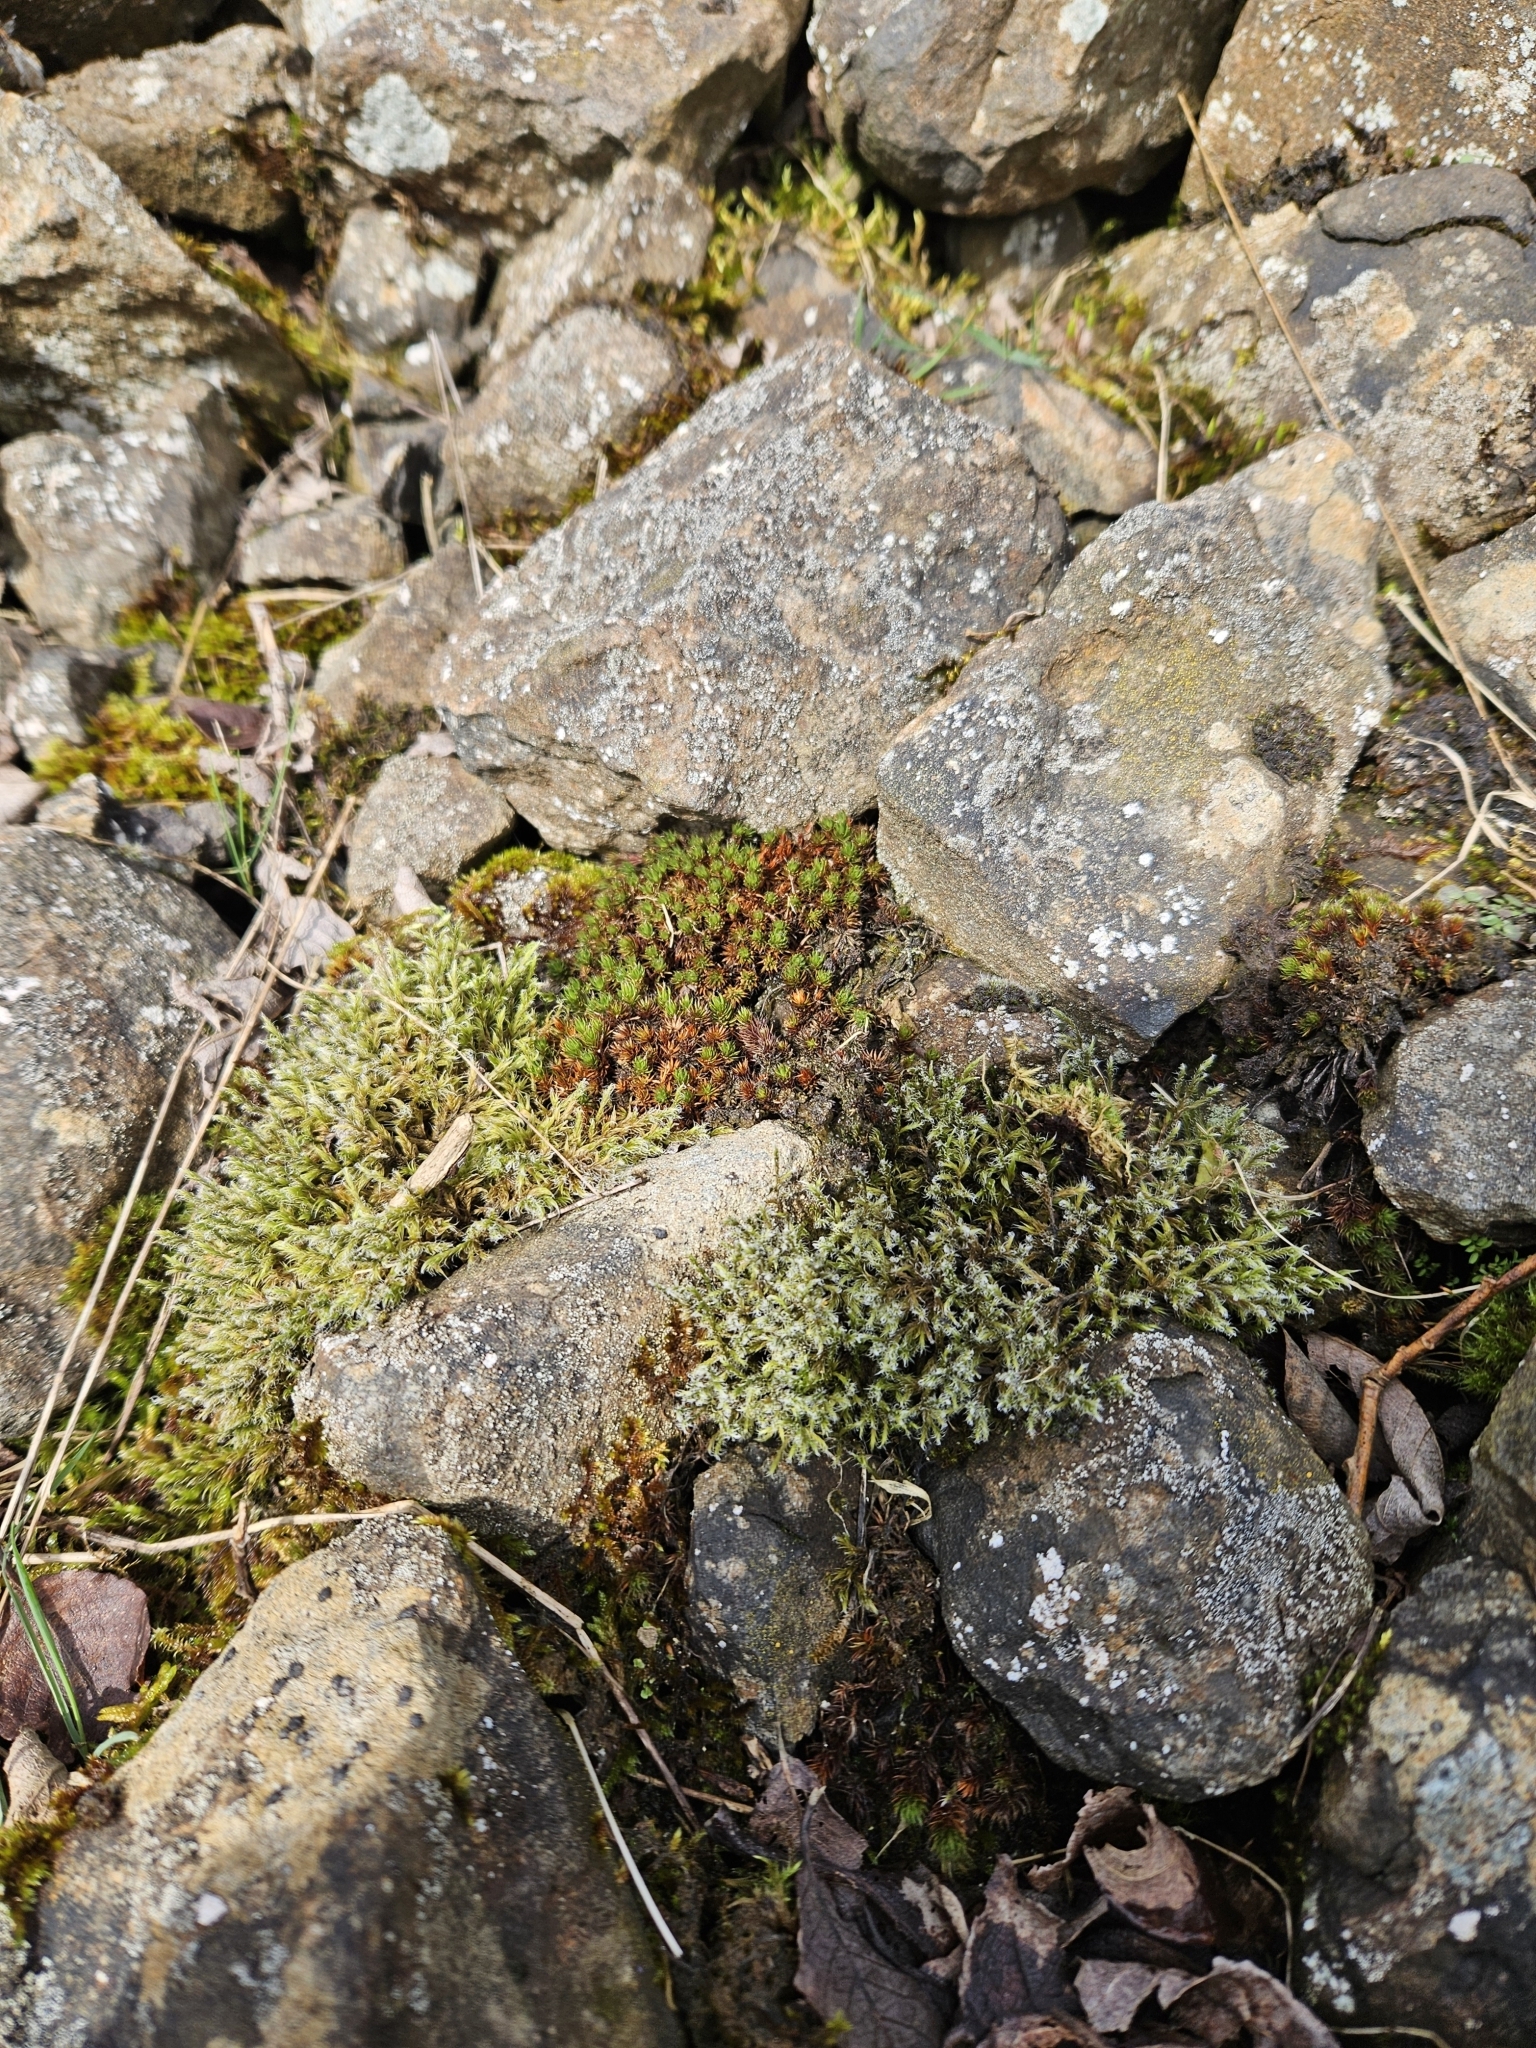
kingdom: Plantae
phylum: Bryophyta
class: Polytrichopsida
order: Polytrichales
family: Polytrichaceae
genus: Polytrichum
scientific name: Polytrichum piliferum
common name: Bristly haircap
